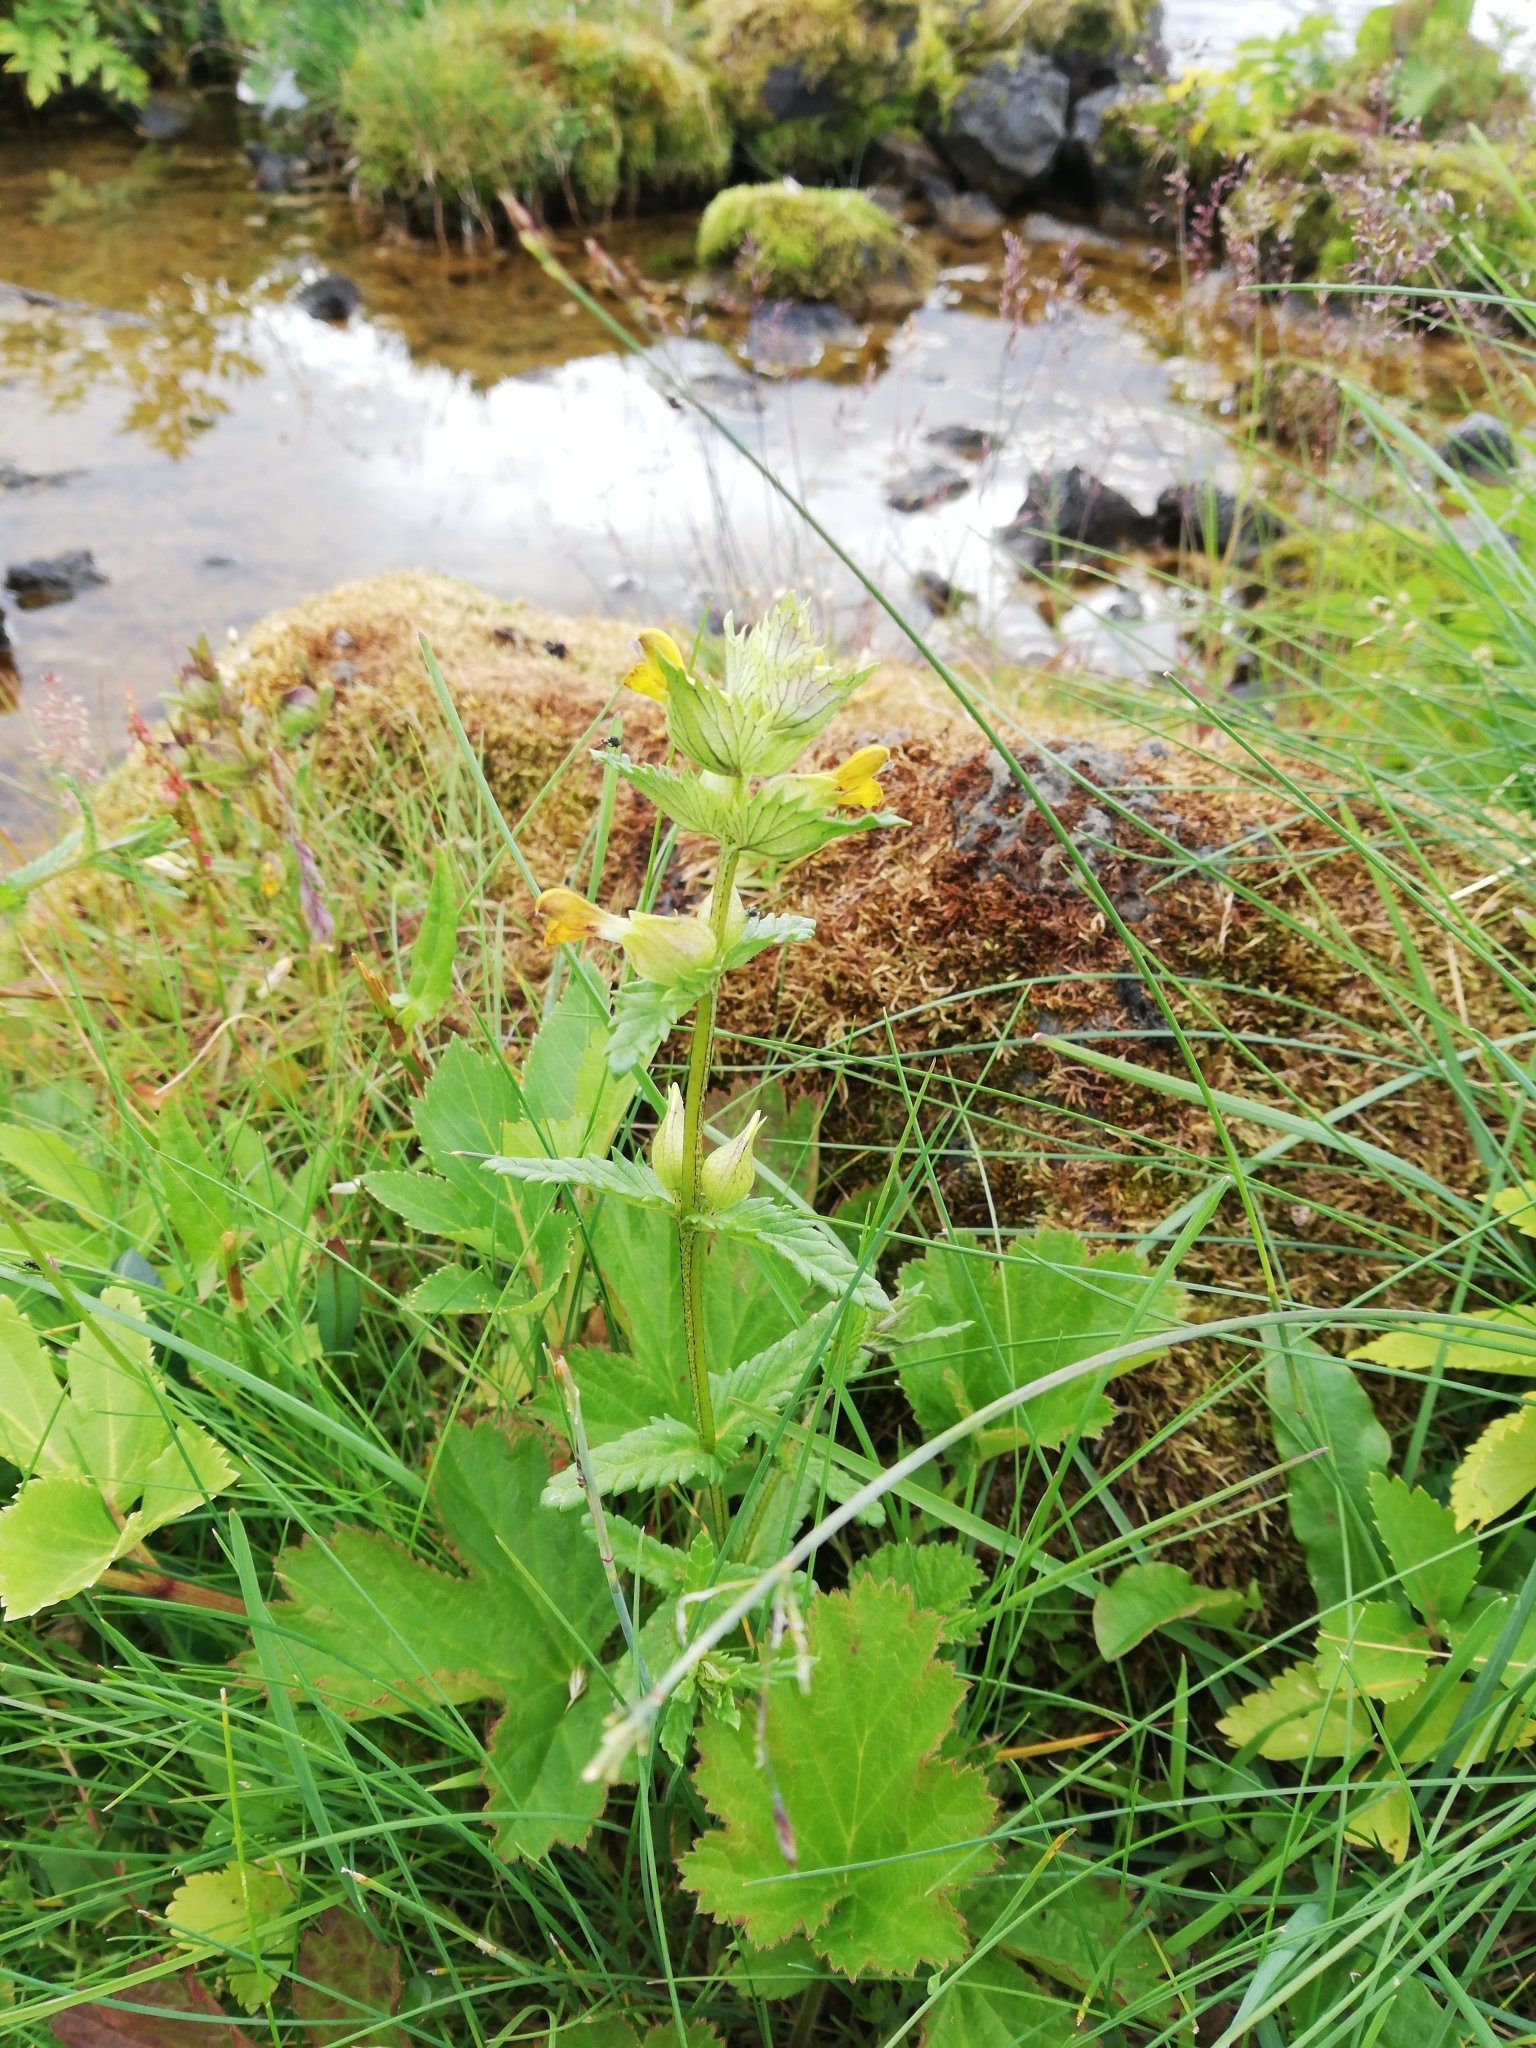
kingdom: Plantae
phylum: Tracheophyta
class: Magnoliopsida
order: Lamiales
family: Orobanchaceae
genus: Rhinanthus
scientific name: Rhinanthus minor
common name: Yellow-rattle
